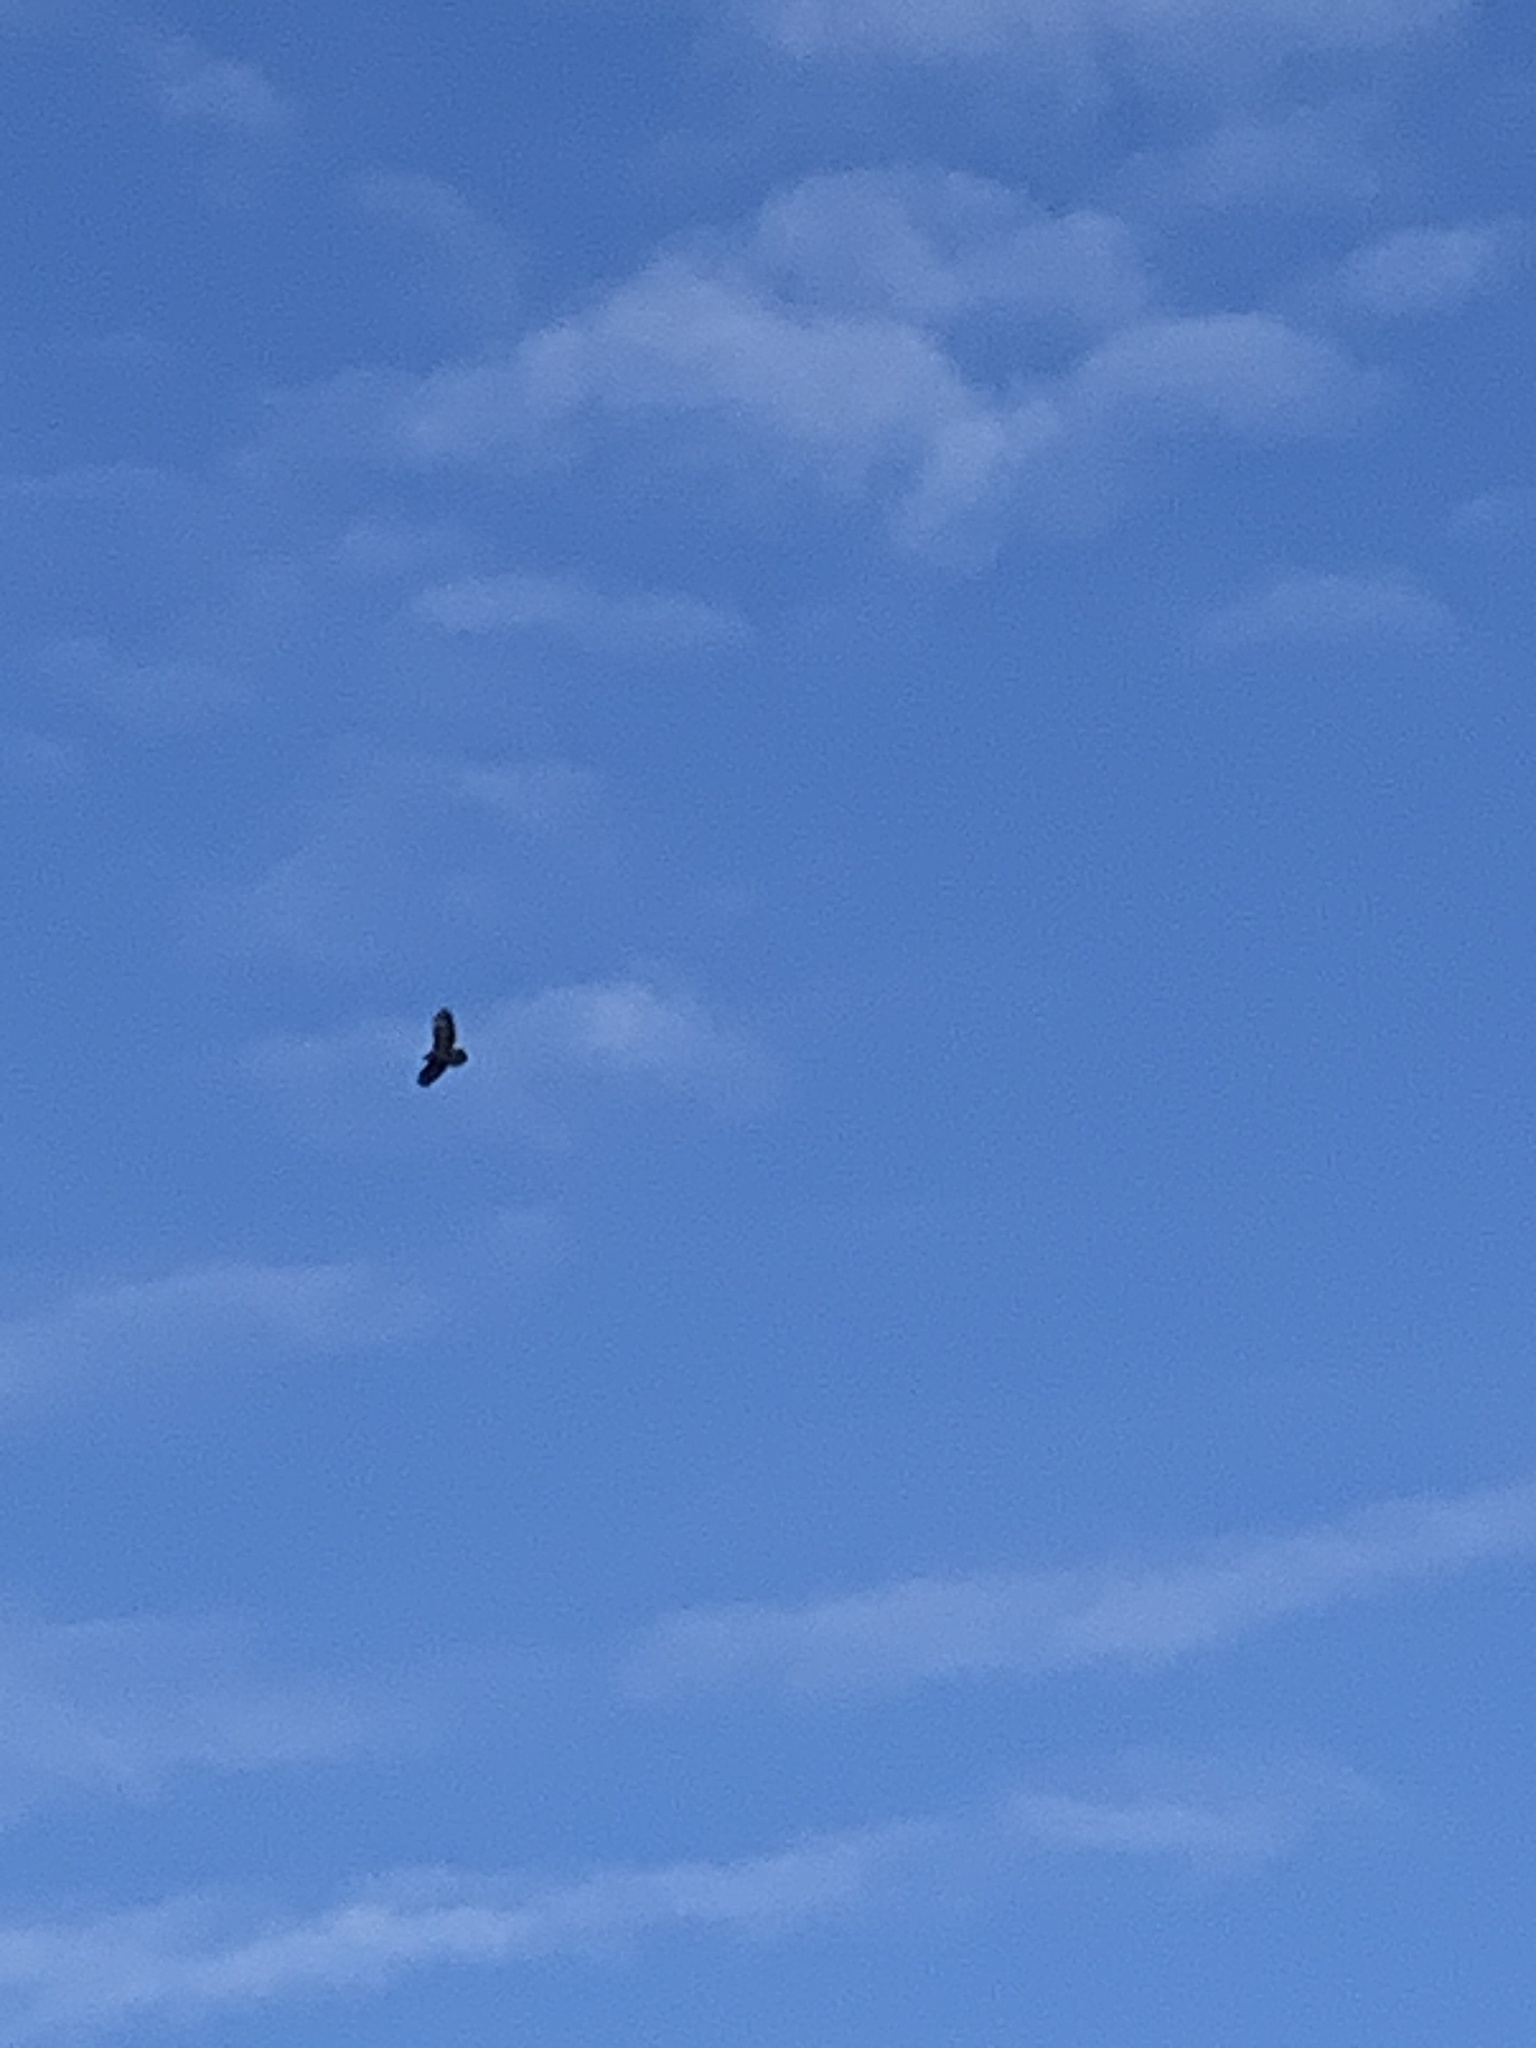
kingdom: Animalia
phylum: Chordata
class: Aves
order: Accipitriformes
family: Accipitridae
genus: Buteo
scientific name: Buteo buteo
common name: Common buzzard
